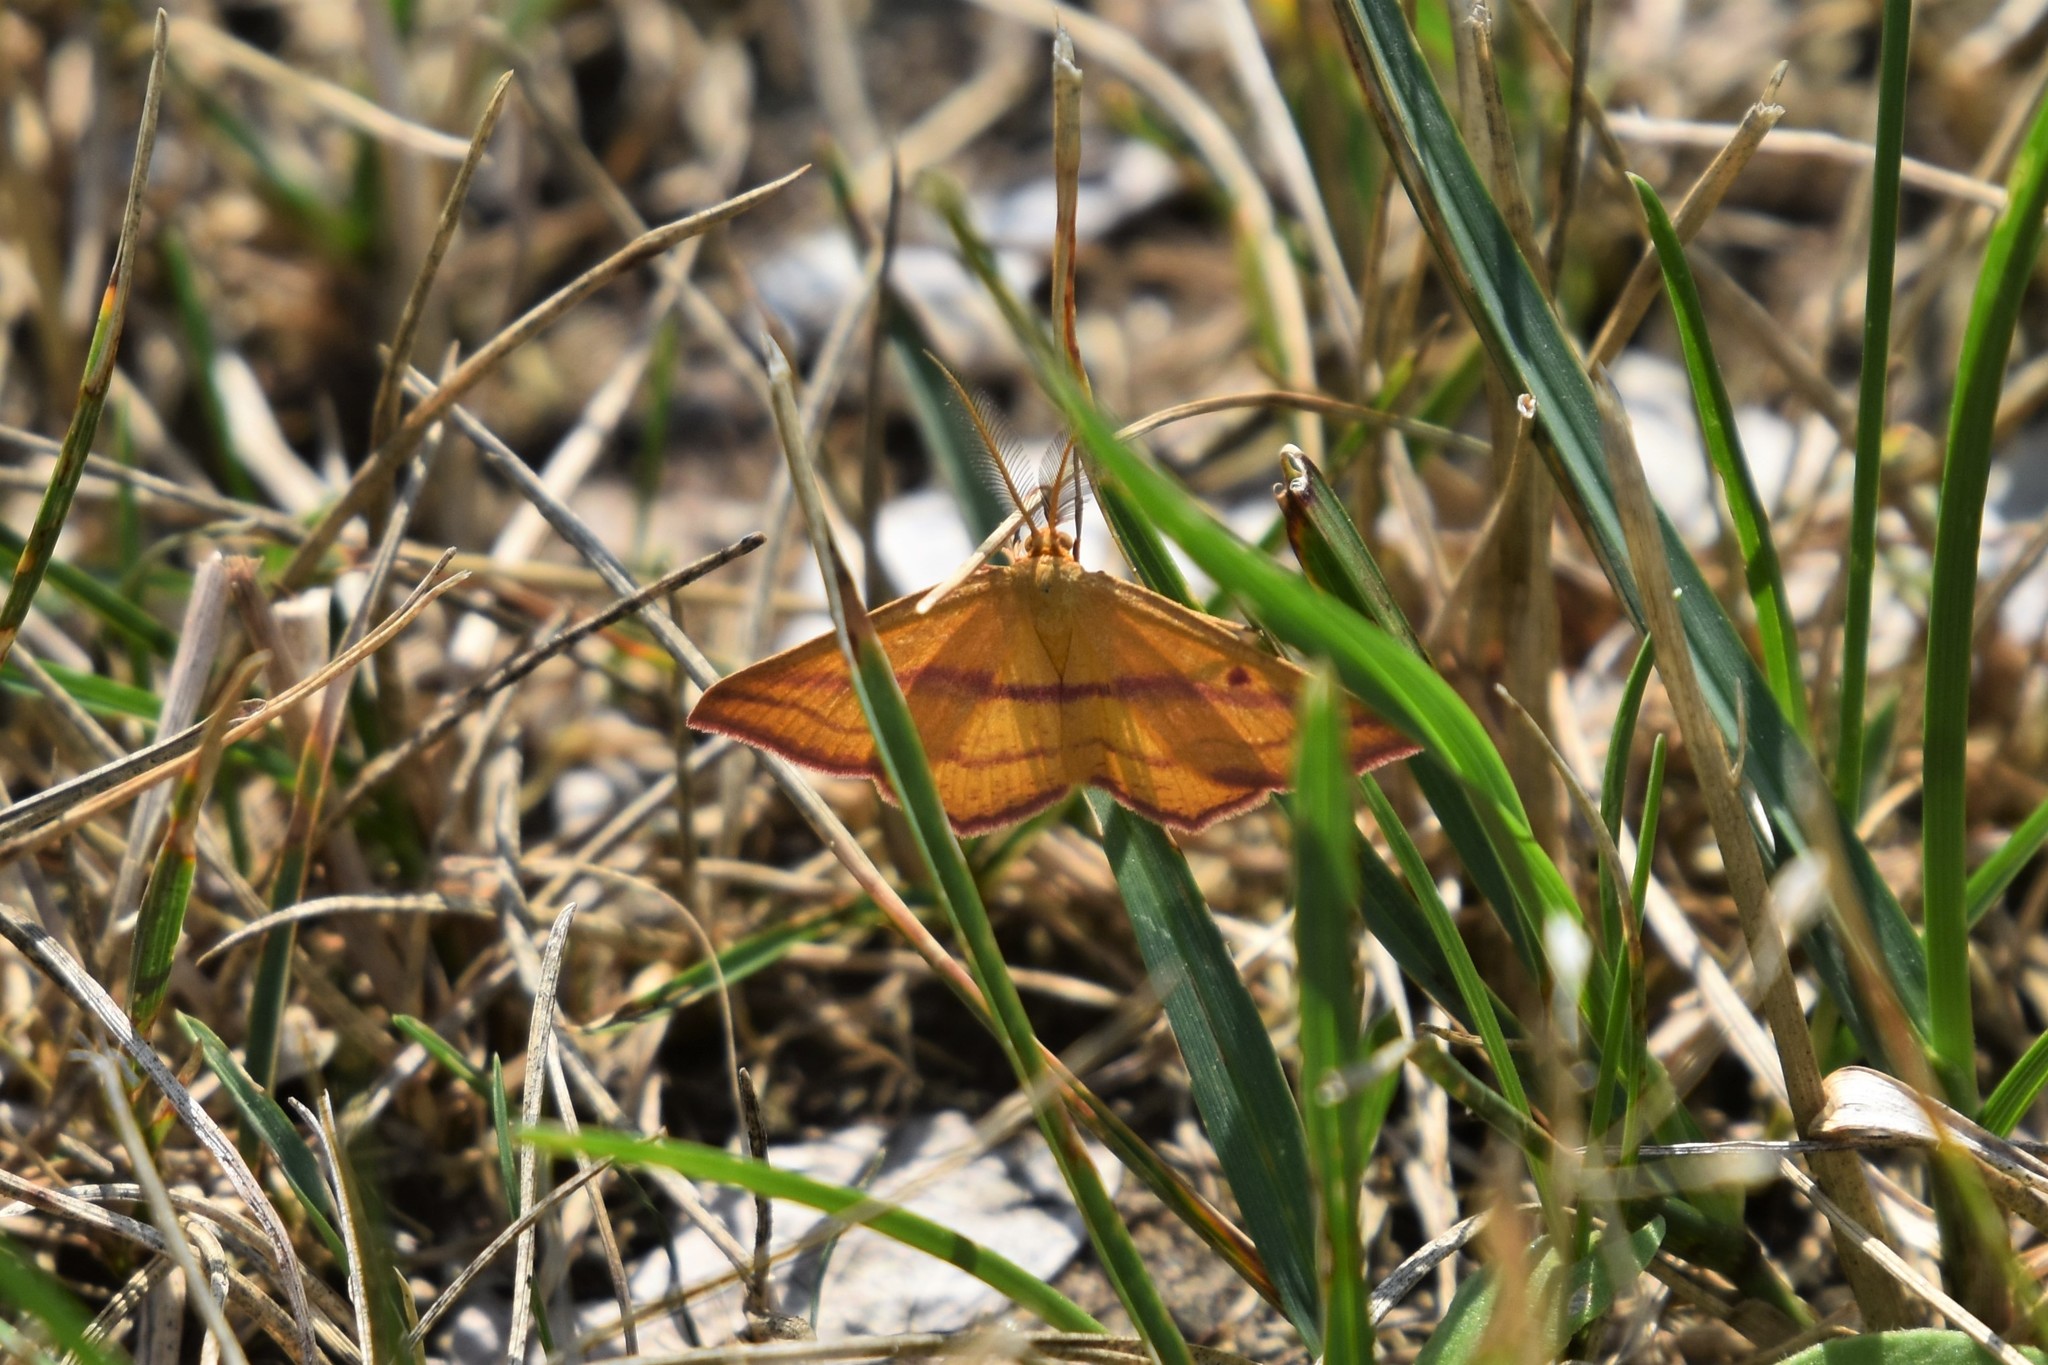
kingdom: Animalia
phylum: Arthropoda
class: Insecta
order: Lepidoptera
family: Geometridae
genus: Haematopis
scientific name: Haematopis grataria
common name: Chickweed geometer
